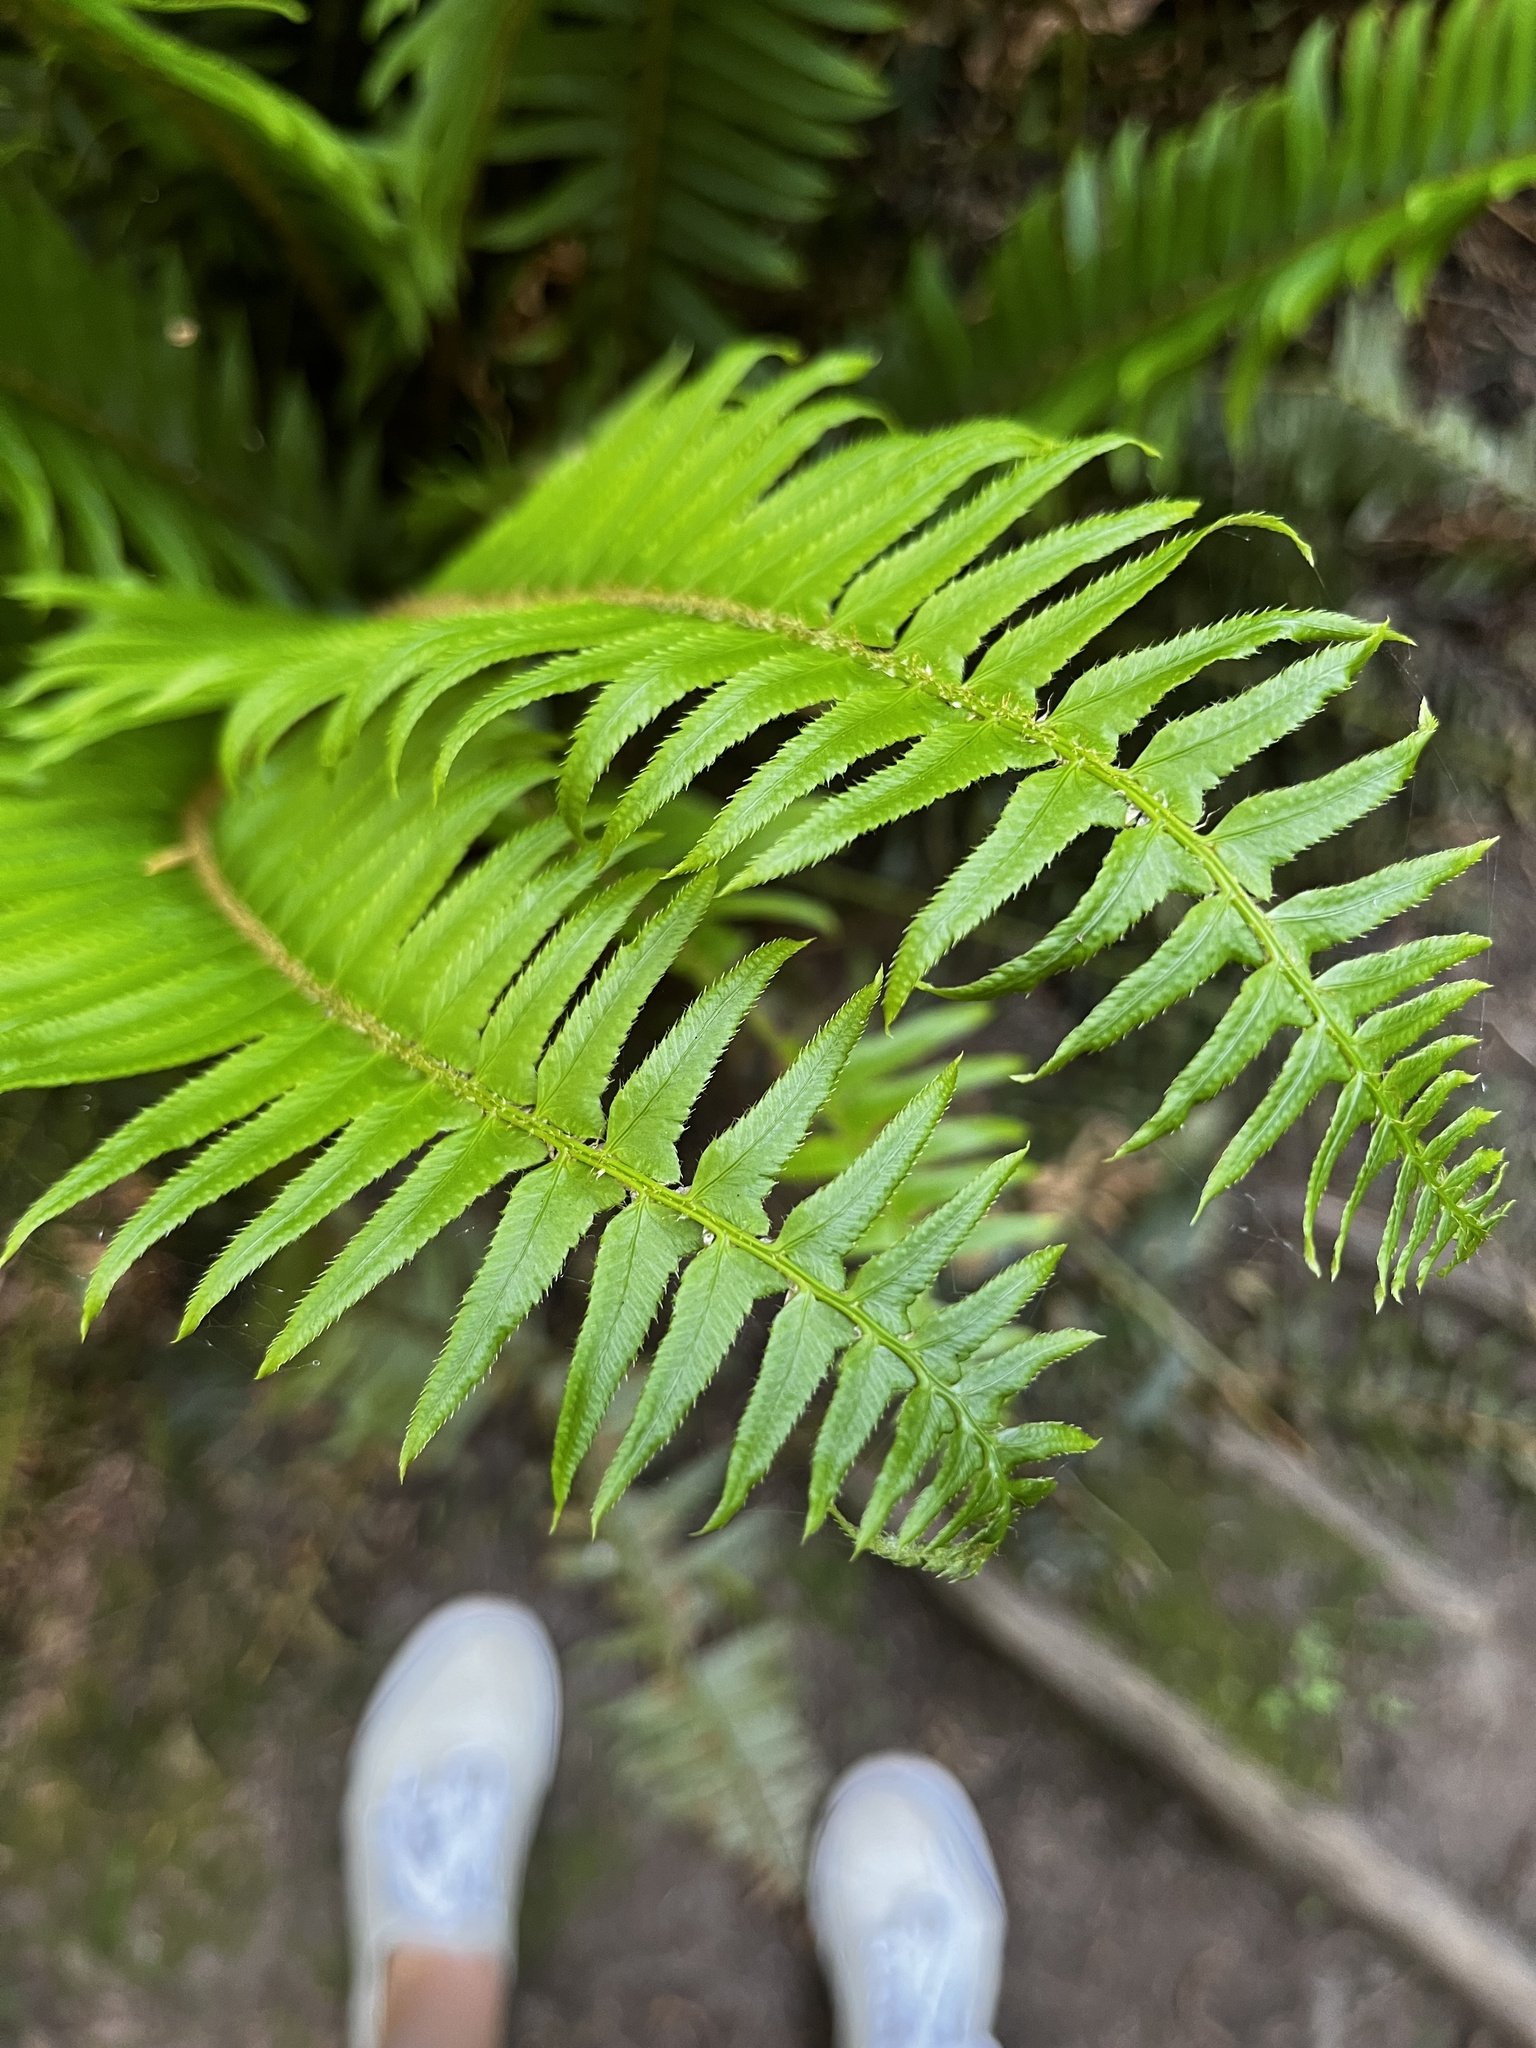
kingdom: Plantae
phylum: Tracheophyta
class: Polypodiopsida
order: Polypodiales
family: Dryopteridaceae
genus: Polystichum
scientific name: Polystichum munitum
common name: Western sword-fern
